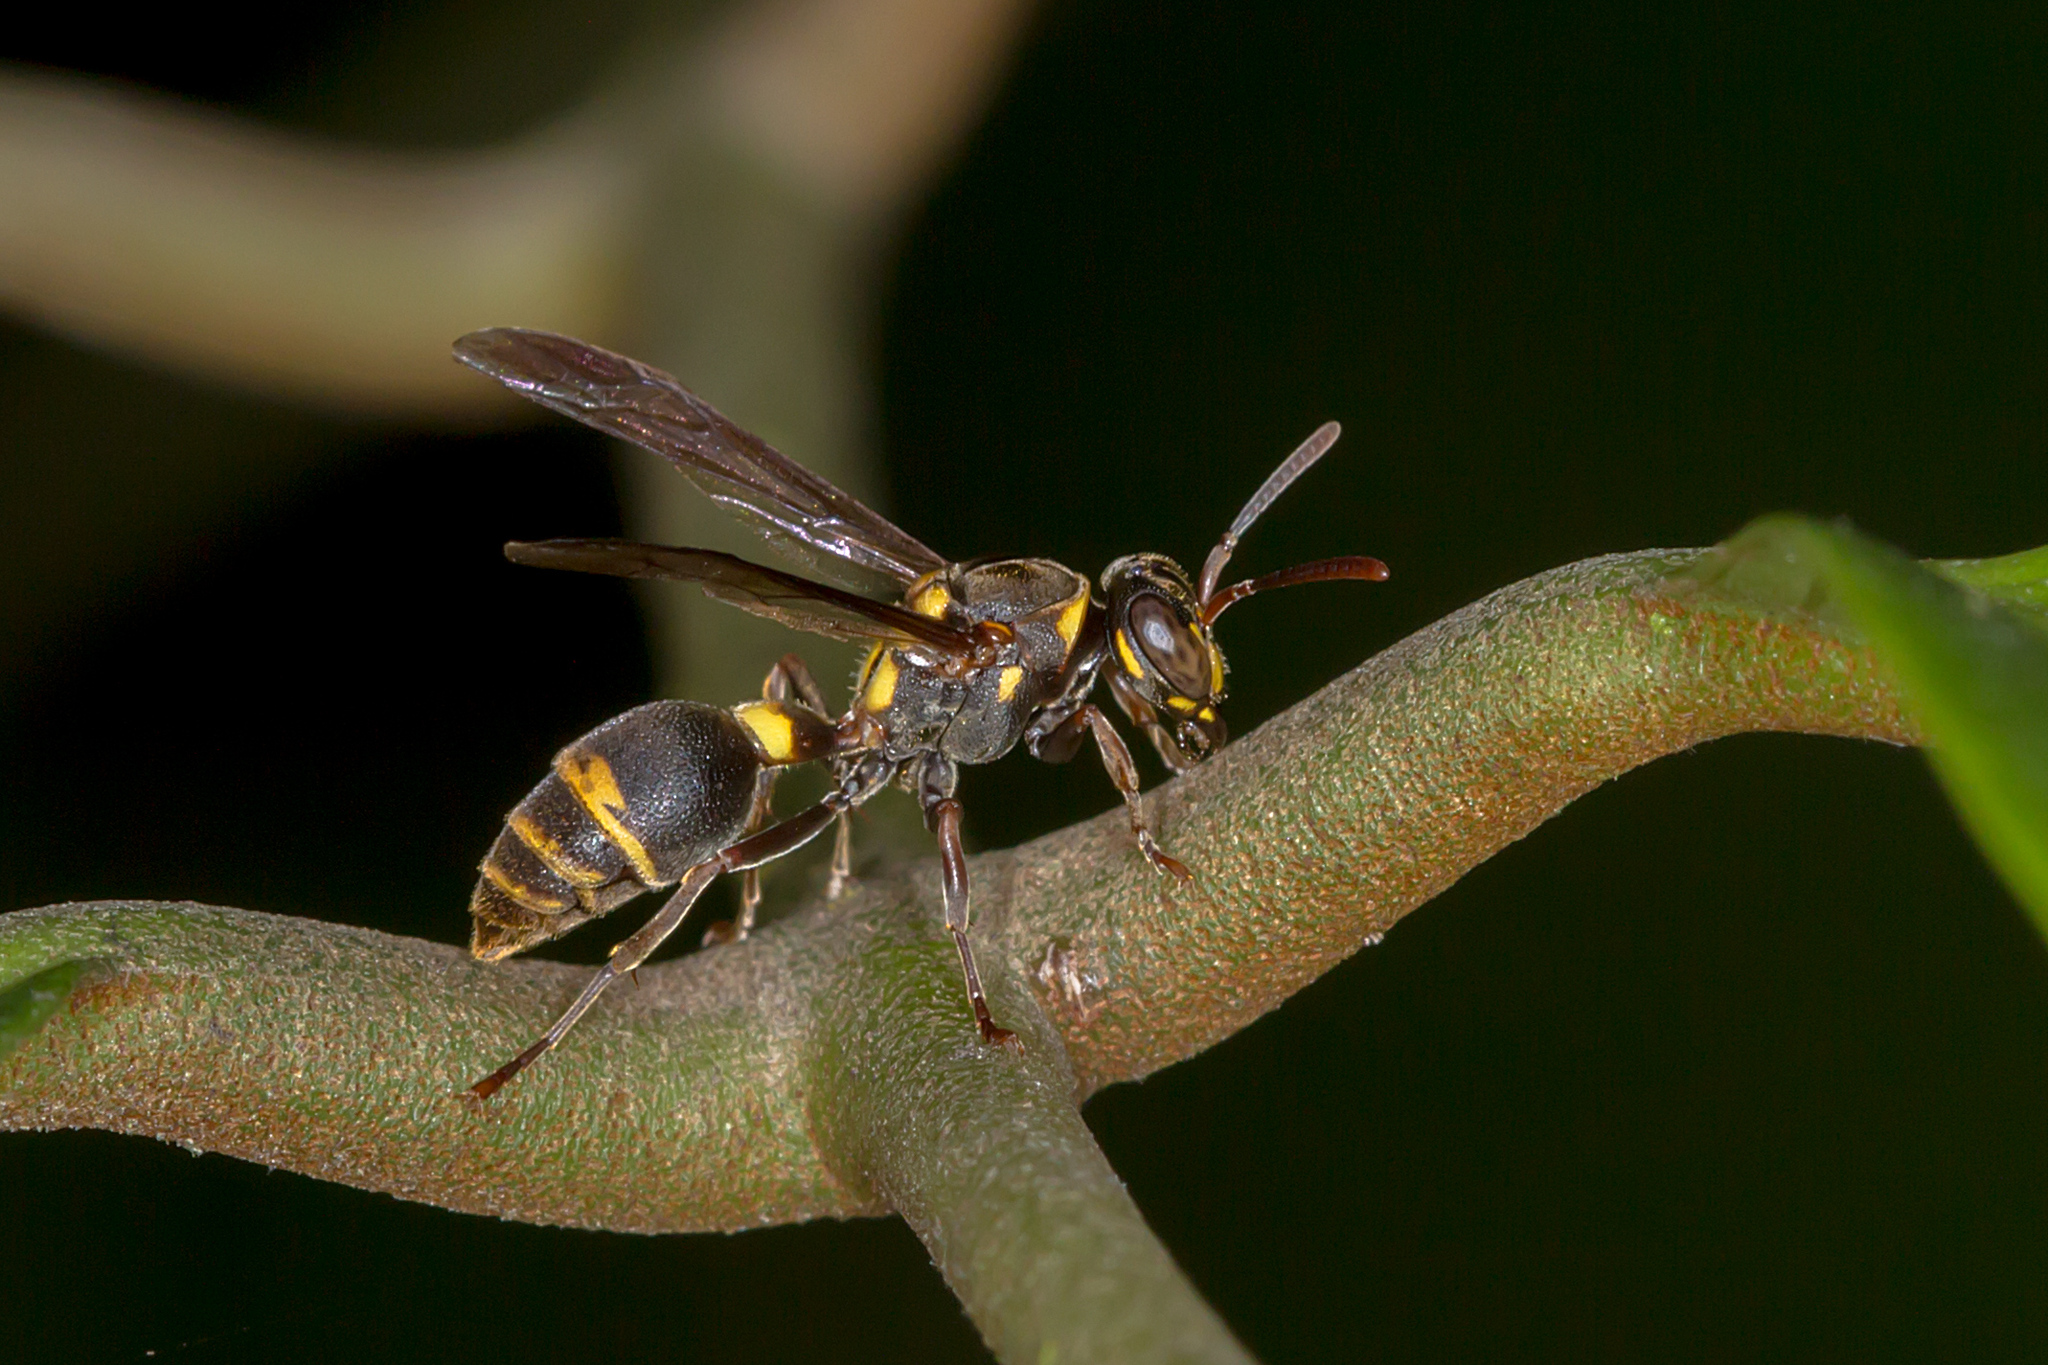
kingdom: Animalia
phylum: Arthropoda
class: Insecta
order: Hymenoptera
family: Vespidae
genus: Ropalidia
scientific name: Ropalidia socialistica
